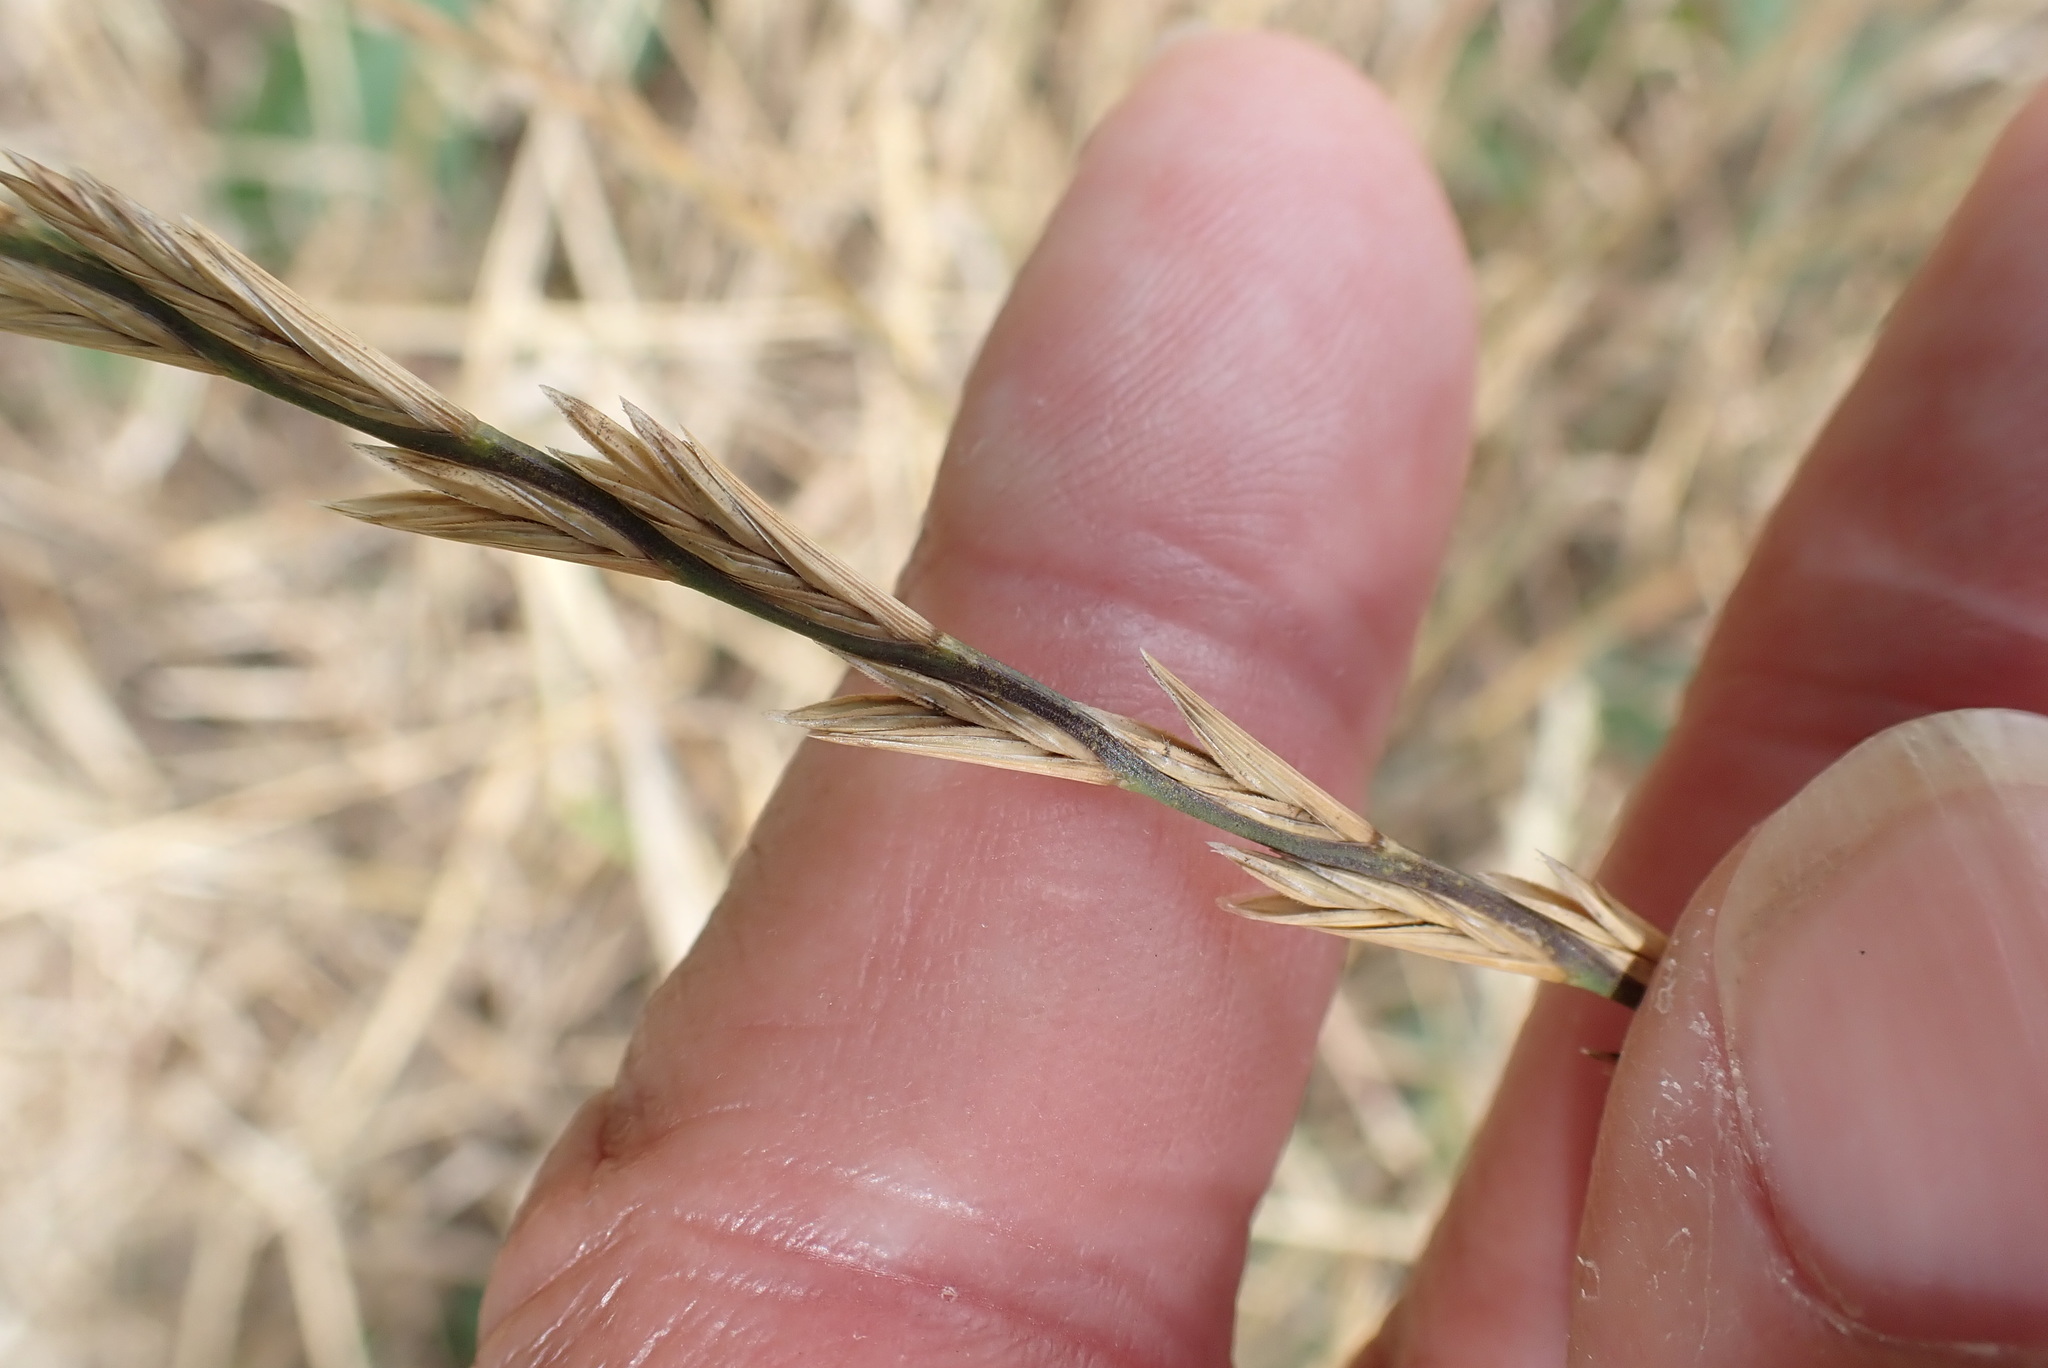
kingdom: Plantae
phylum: Tracheophyta
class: Liliopsida
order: Poales
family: Poaceae
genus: Lolium
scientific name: Lolium perenne
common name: Perennial ryegrass
